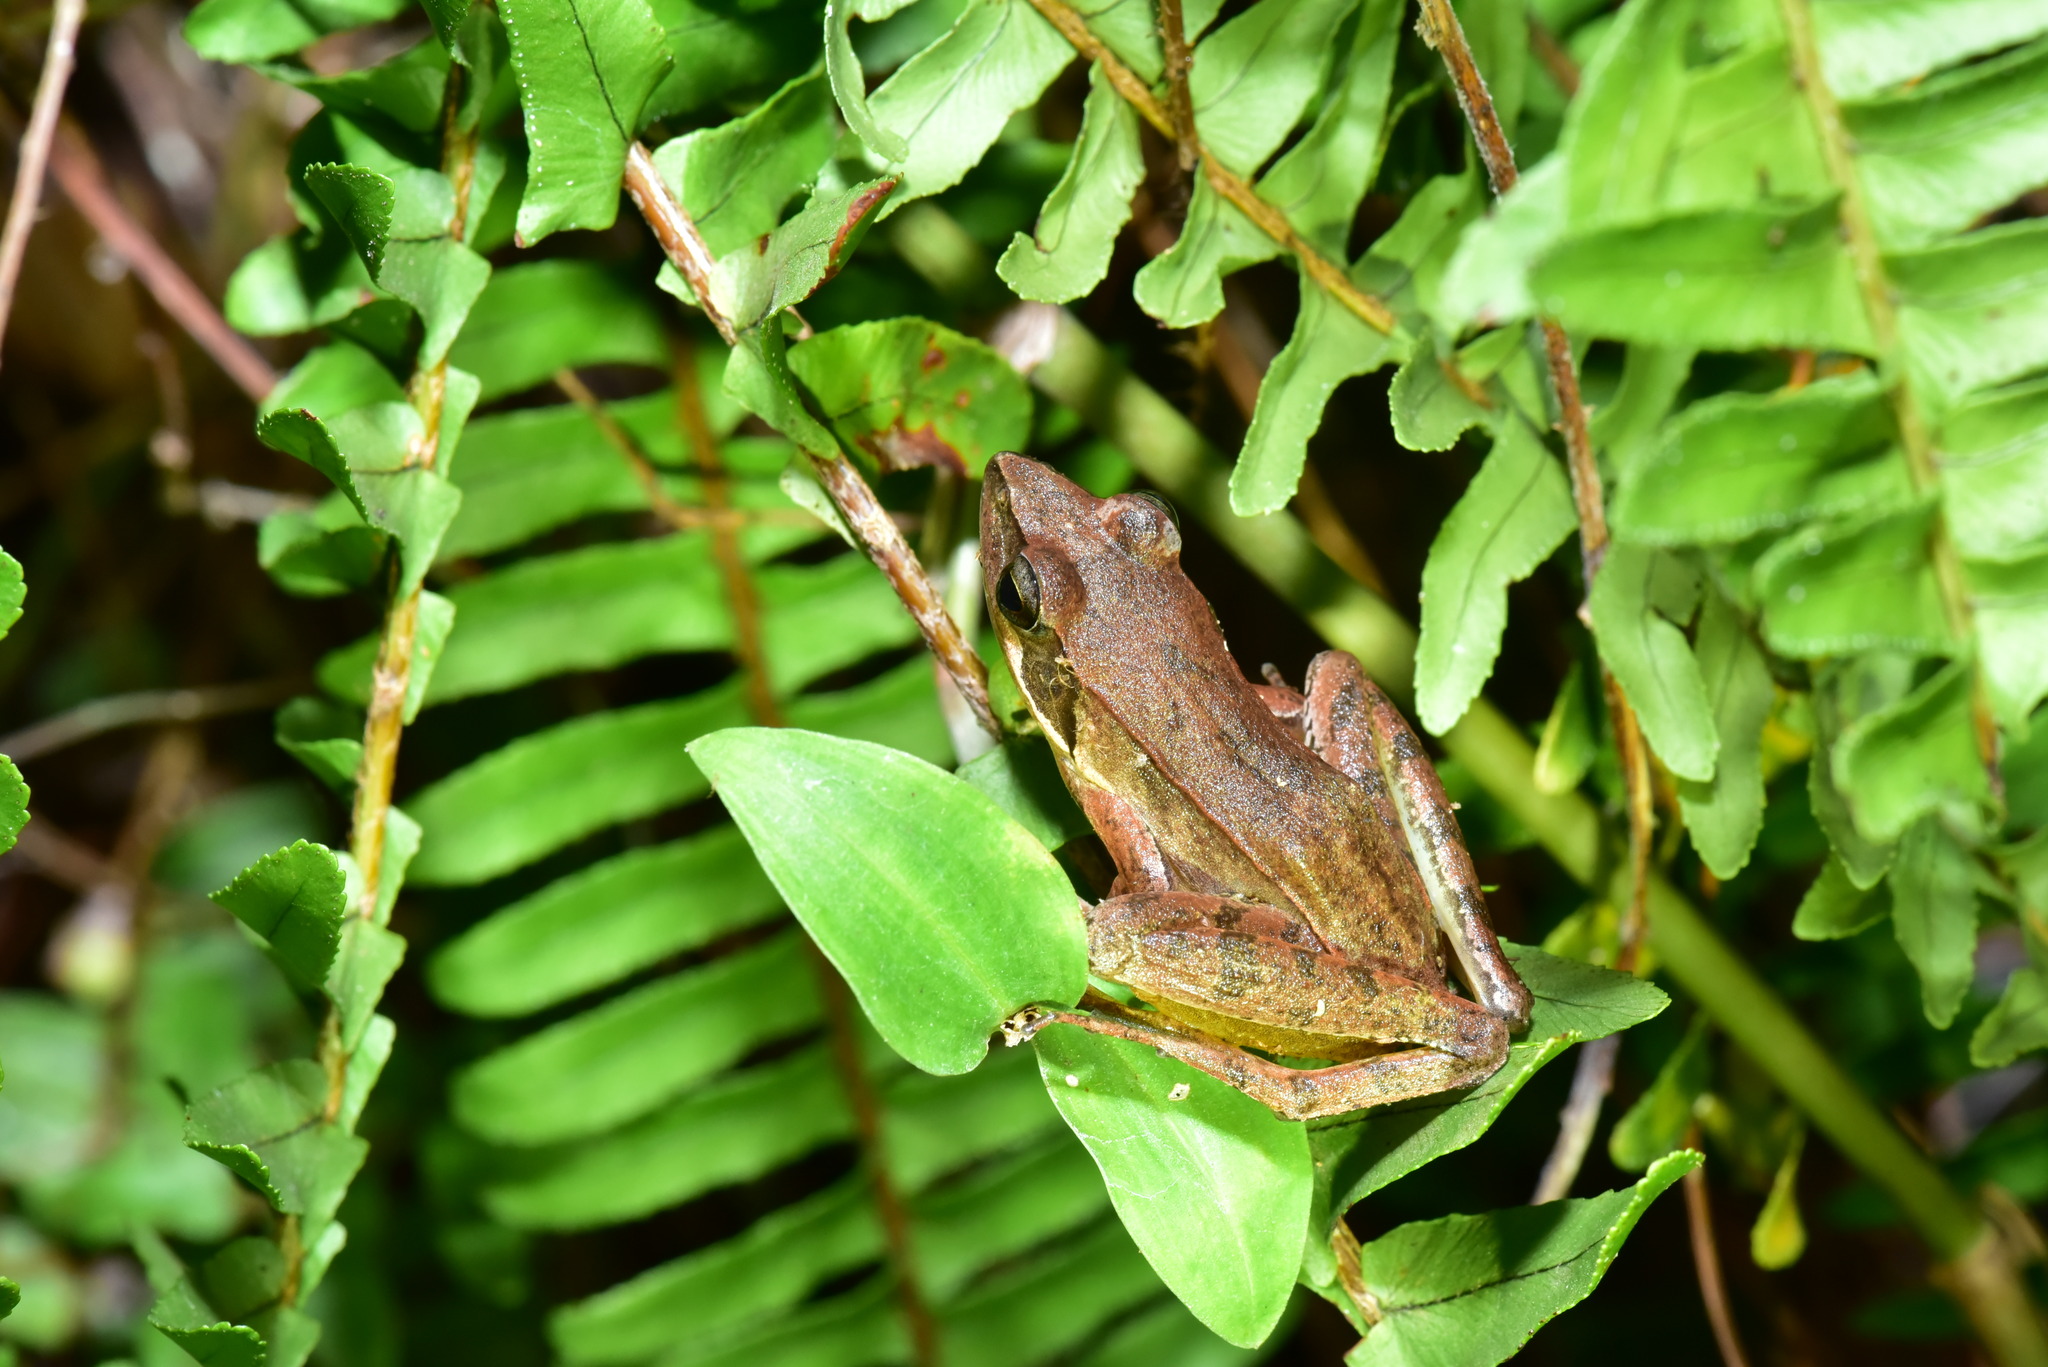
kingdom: Animalia
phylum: Chordata
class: Amphibia
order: Anura
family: Ranidae
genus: Rana
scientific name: Rana longicrus
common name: Long-legged brown frog
